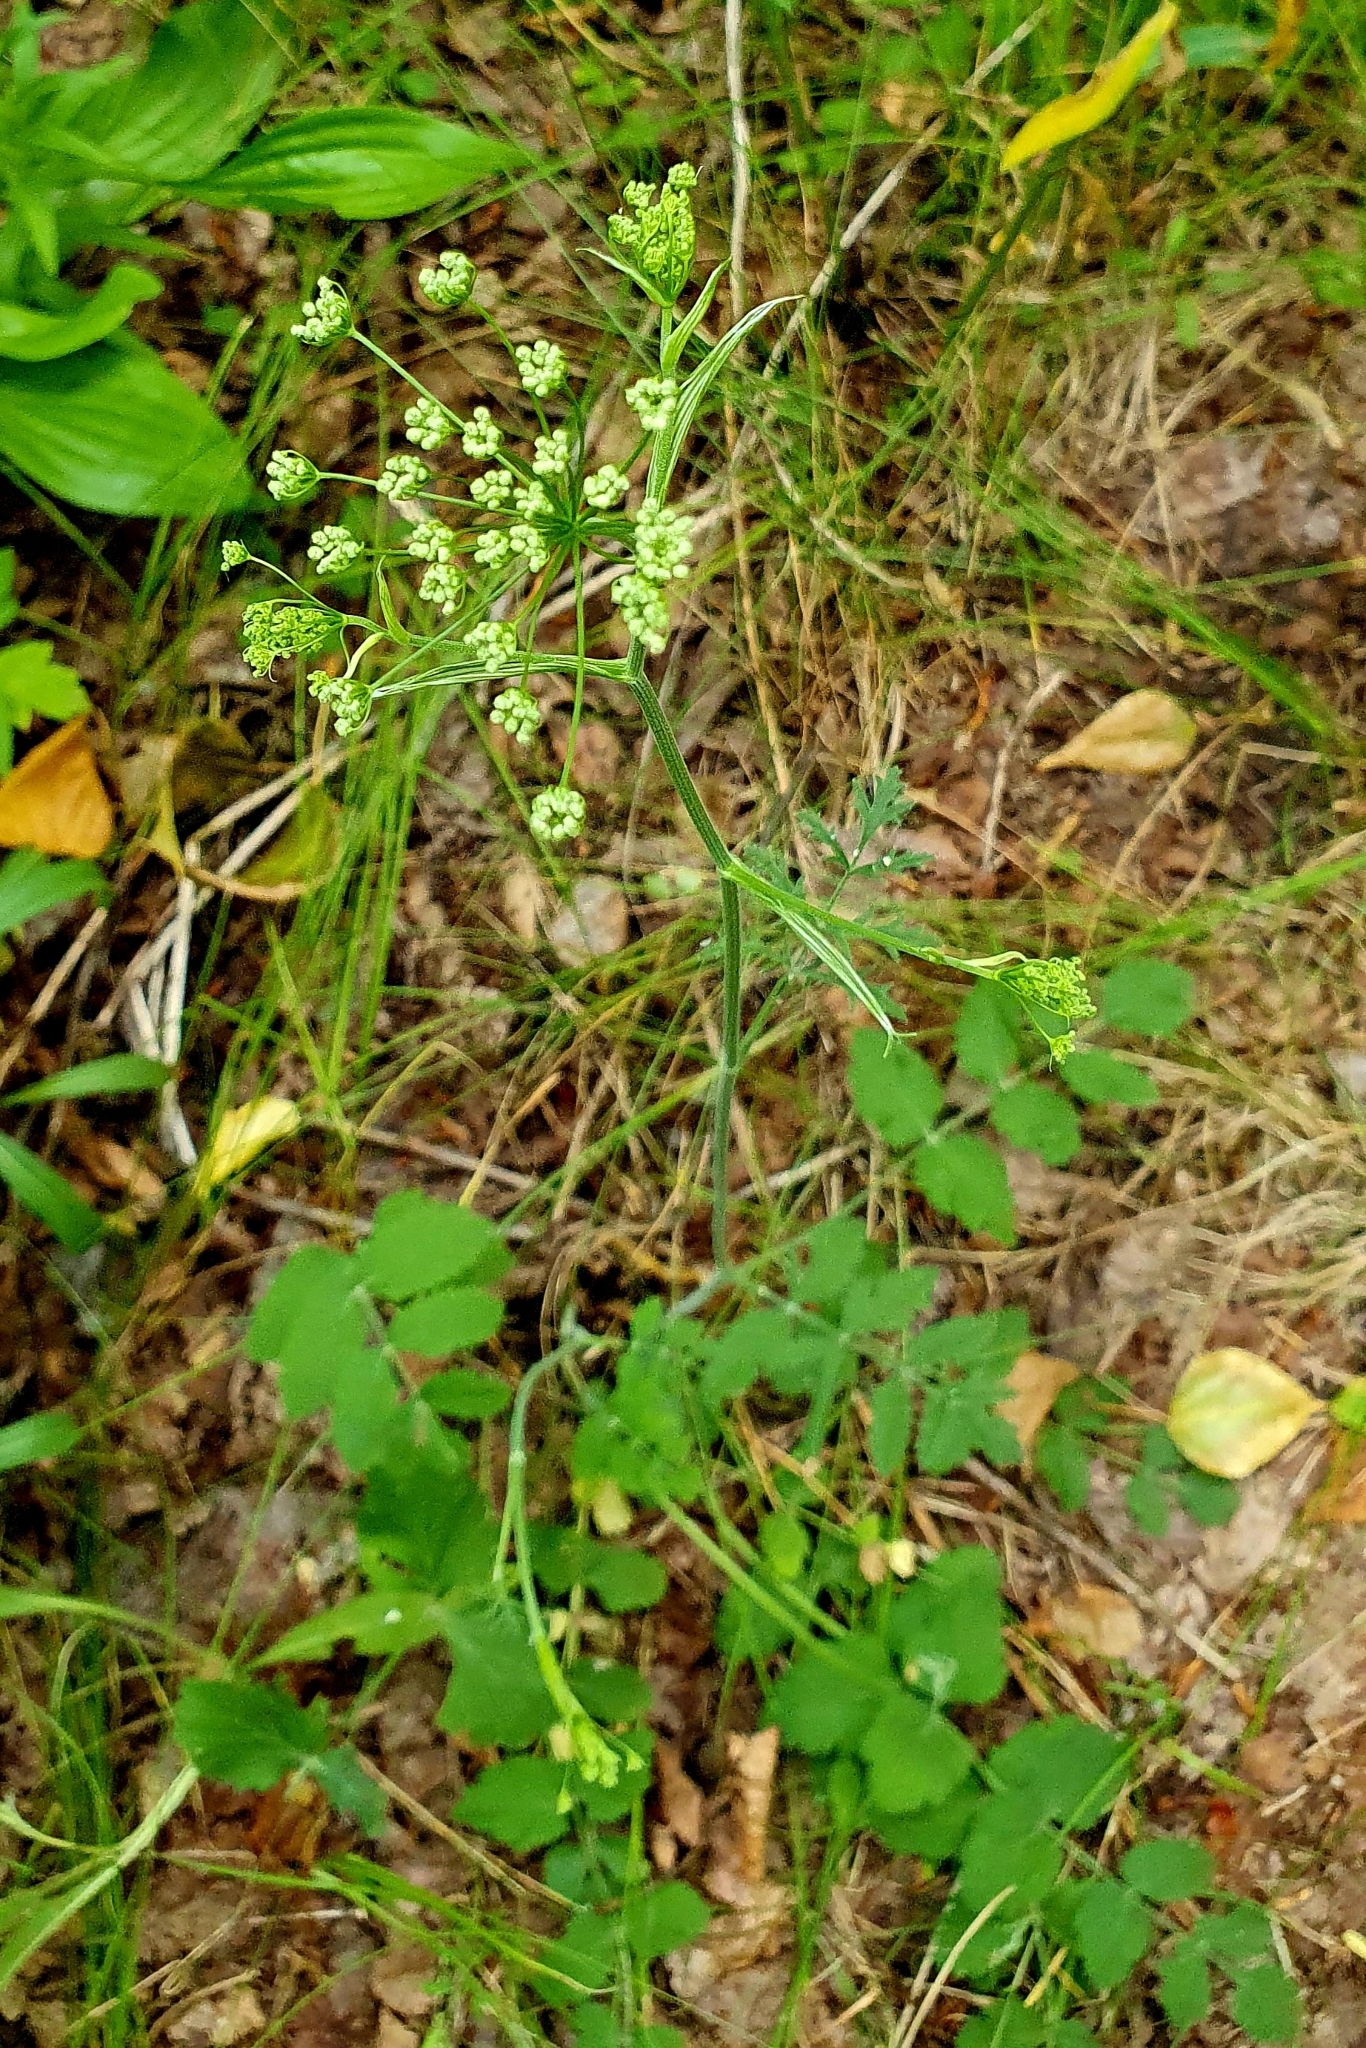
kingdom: Plantae
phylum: Tracheophyta
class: Magnoliopsida
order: Apiales
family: Apiaceae
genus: Pimpinella
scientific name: Pimpinella saxifraga
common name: Burnet-saxifrage
